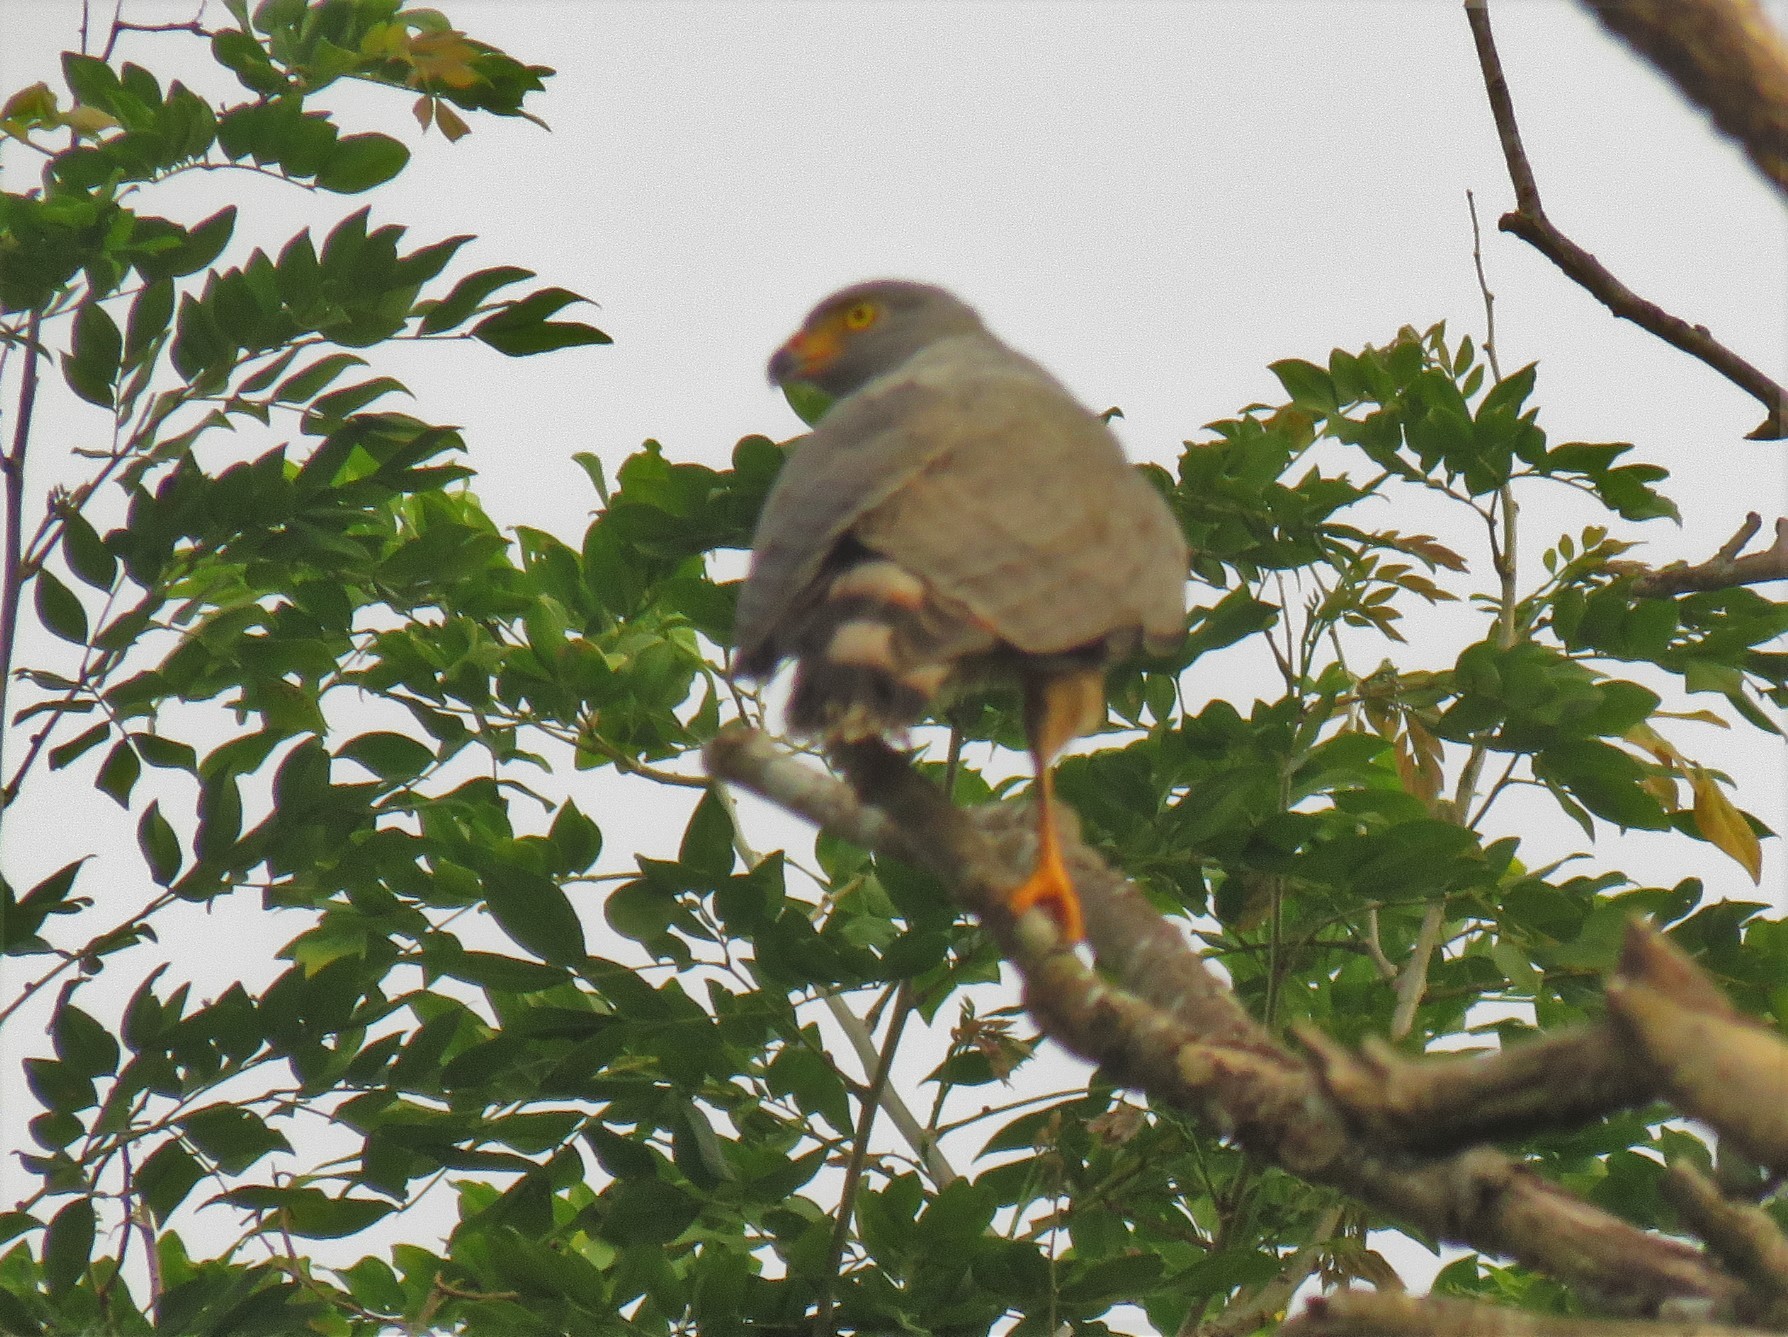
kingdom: Animalia
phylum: Chordata
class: Aves
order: Accipitriformes
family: Accipitridae
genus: Rupornis
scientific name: Rupornis magnirostris
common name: Roadside hawk
